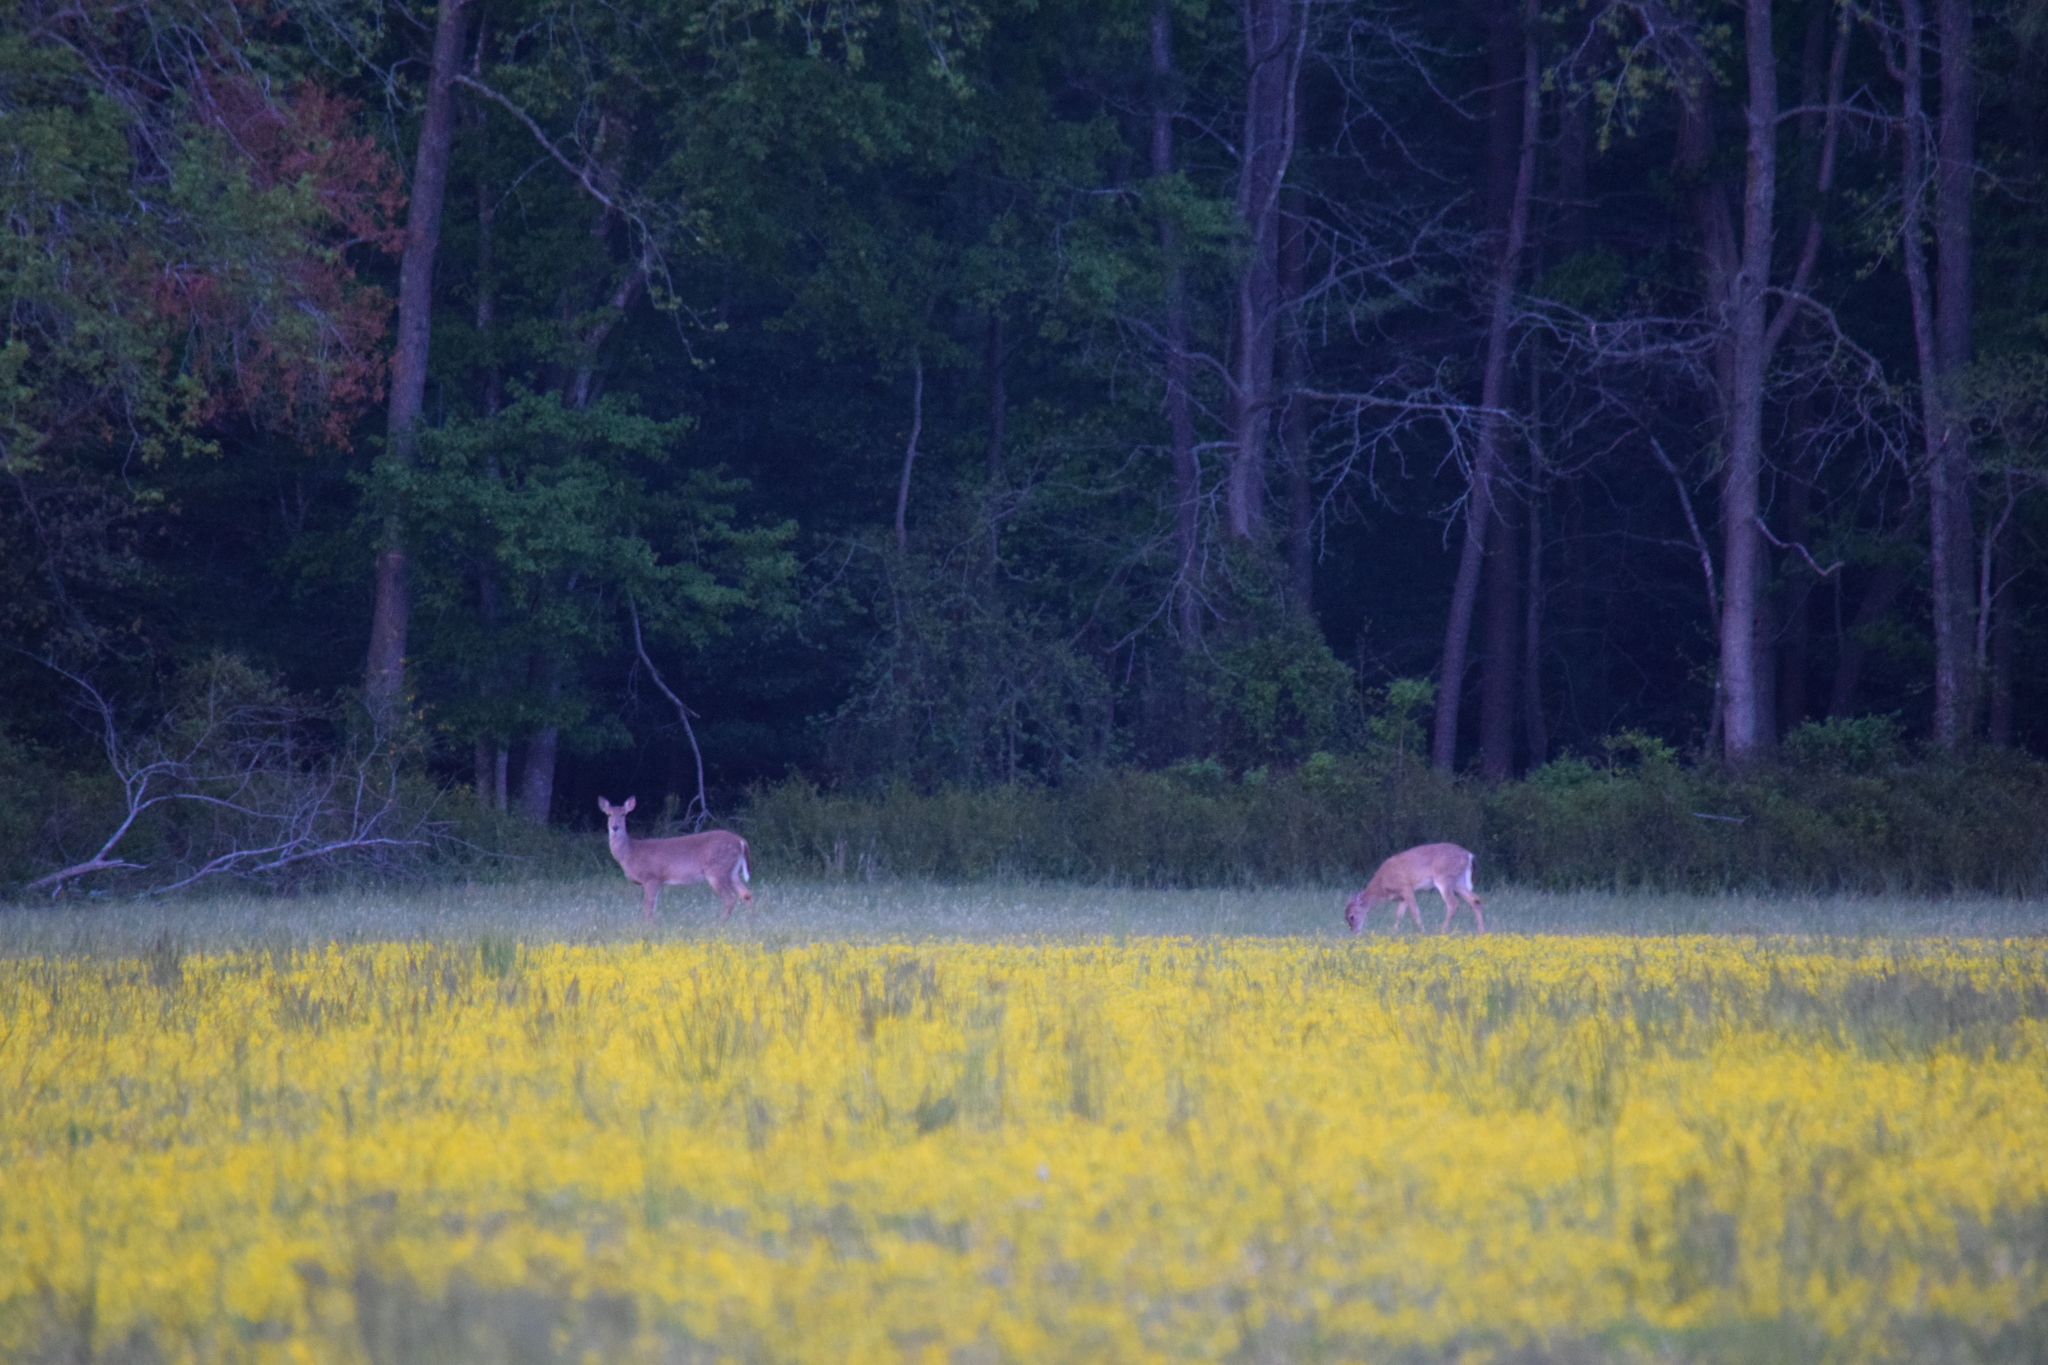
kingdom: Animalia
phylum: Chordata
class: Mammalia
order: Artiodactyla
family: Cervidae
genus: Odocoileus
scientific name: Odocoileus virginianus
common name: White-tailed deer
